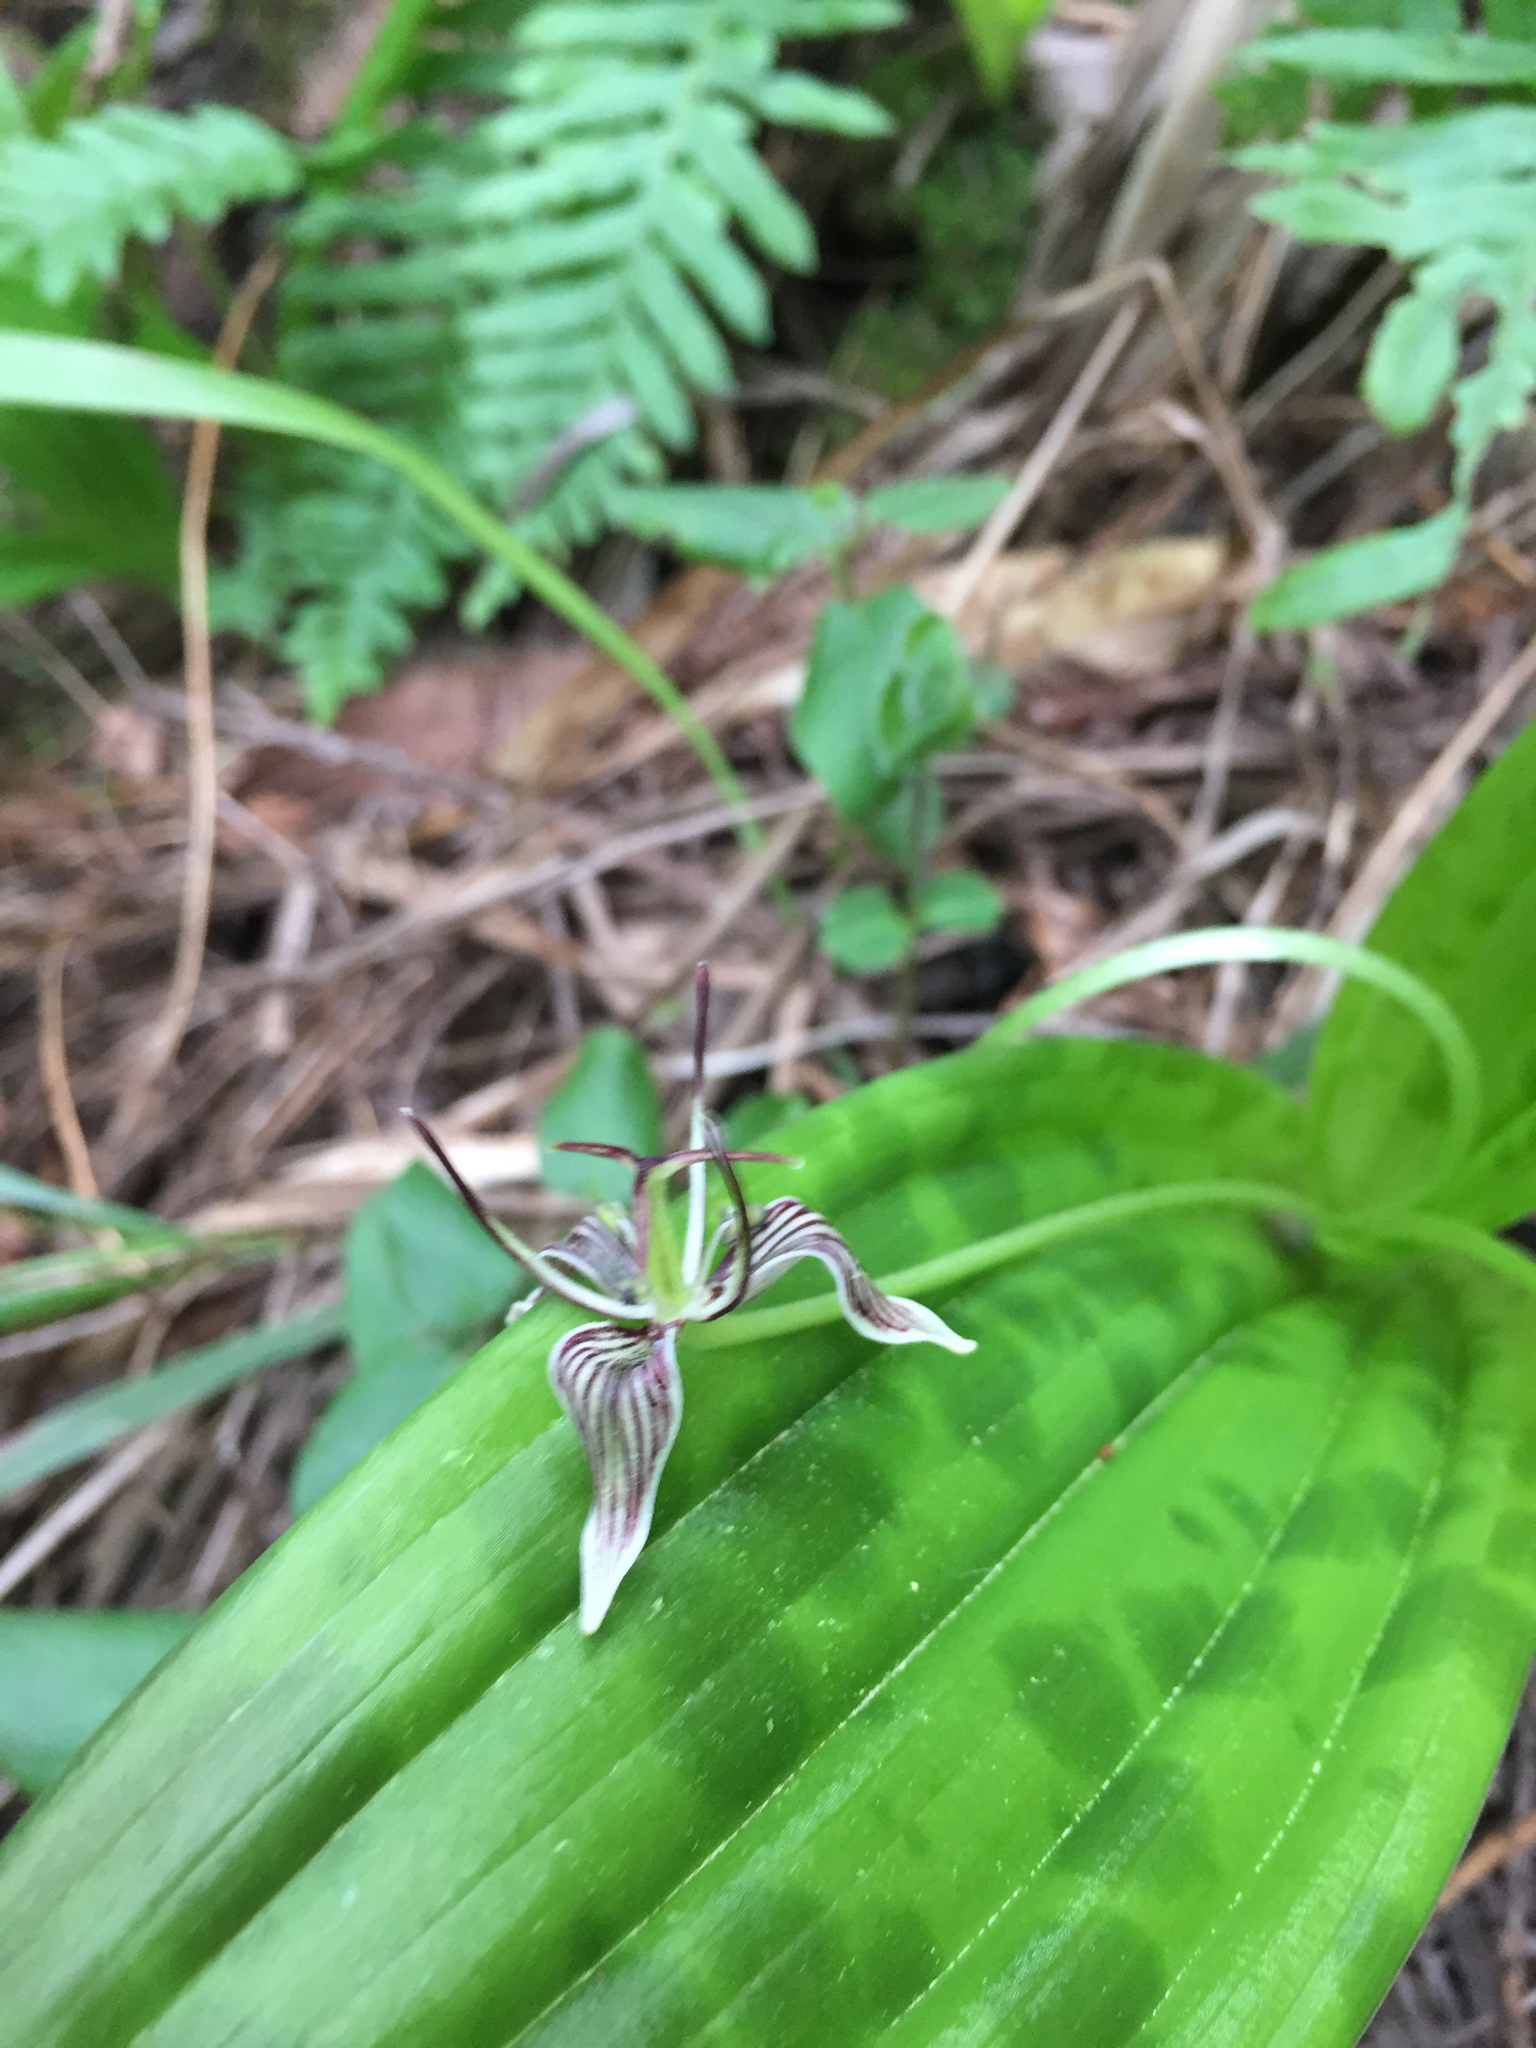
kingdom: Plantae
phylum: Tracheophyta
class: Liliopsida
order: Liliales
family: Liliaceae
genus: Scoliopus
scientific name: Scoliopus bigelovii
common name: Foetid adder's-tongue
